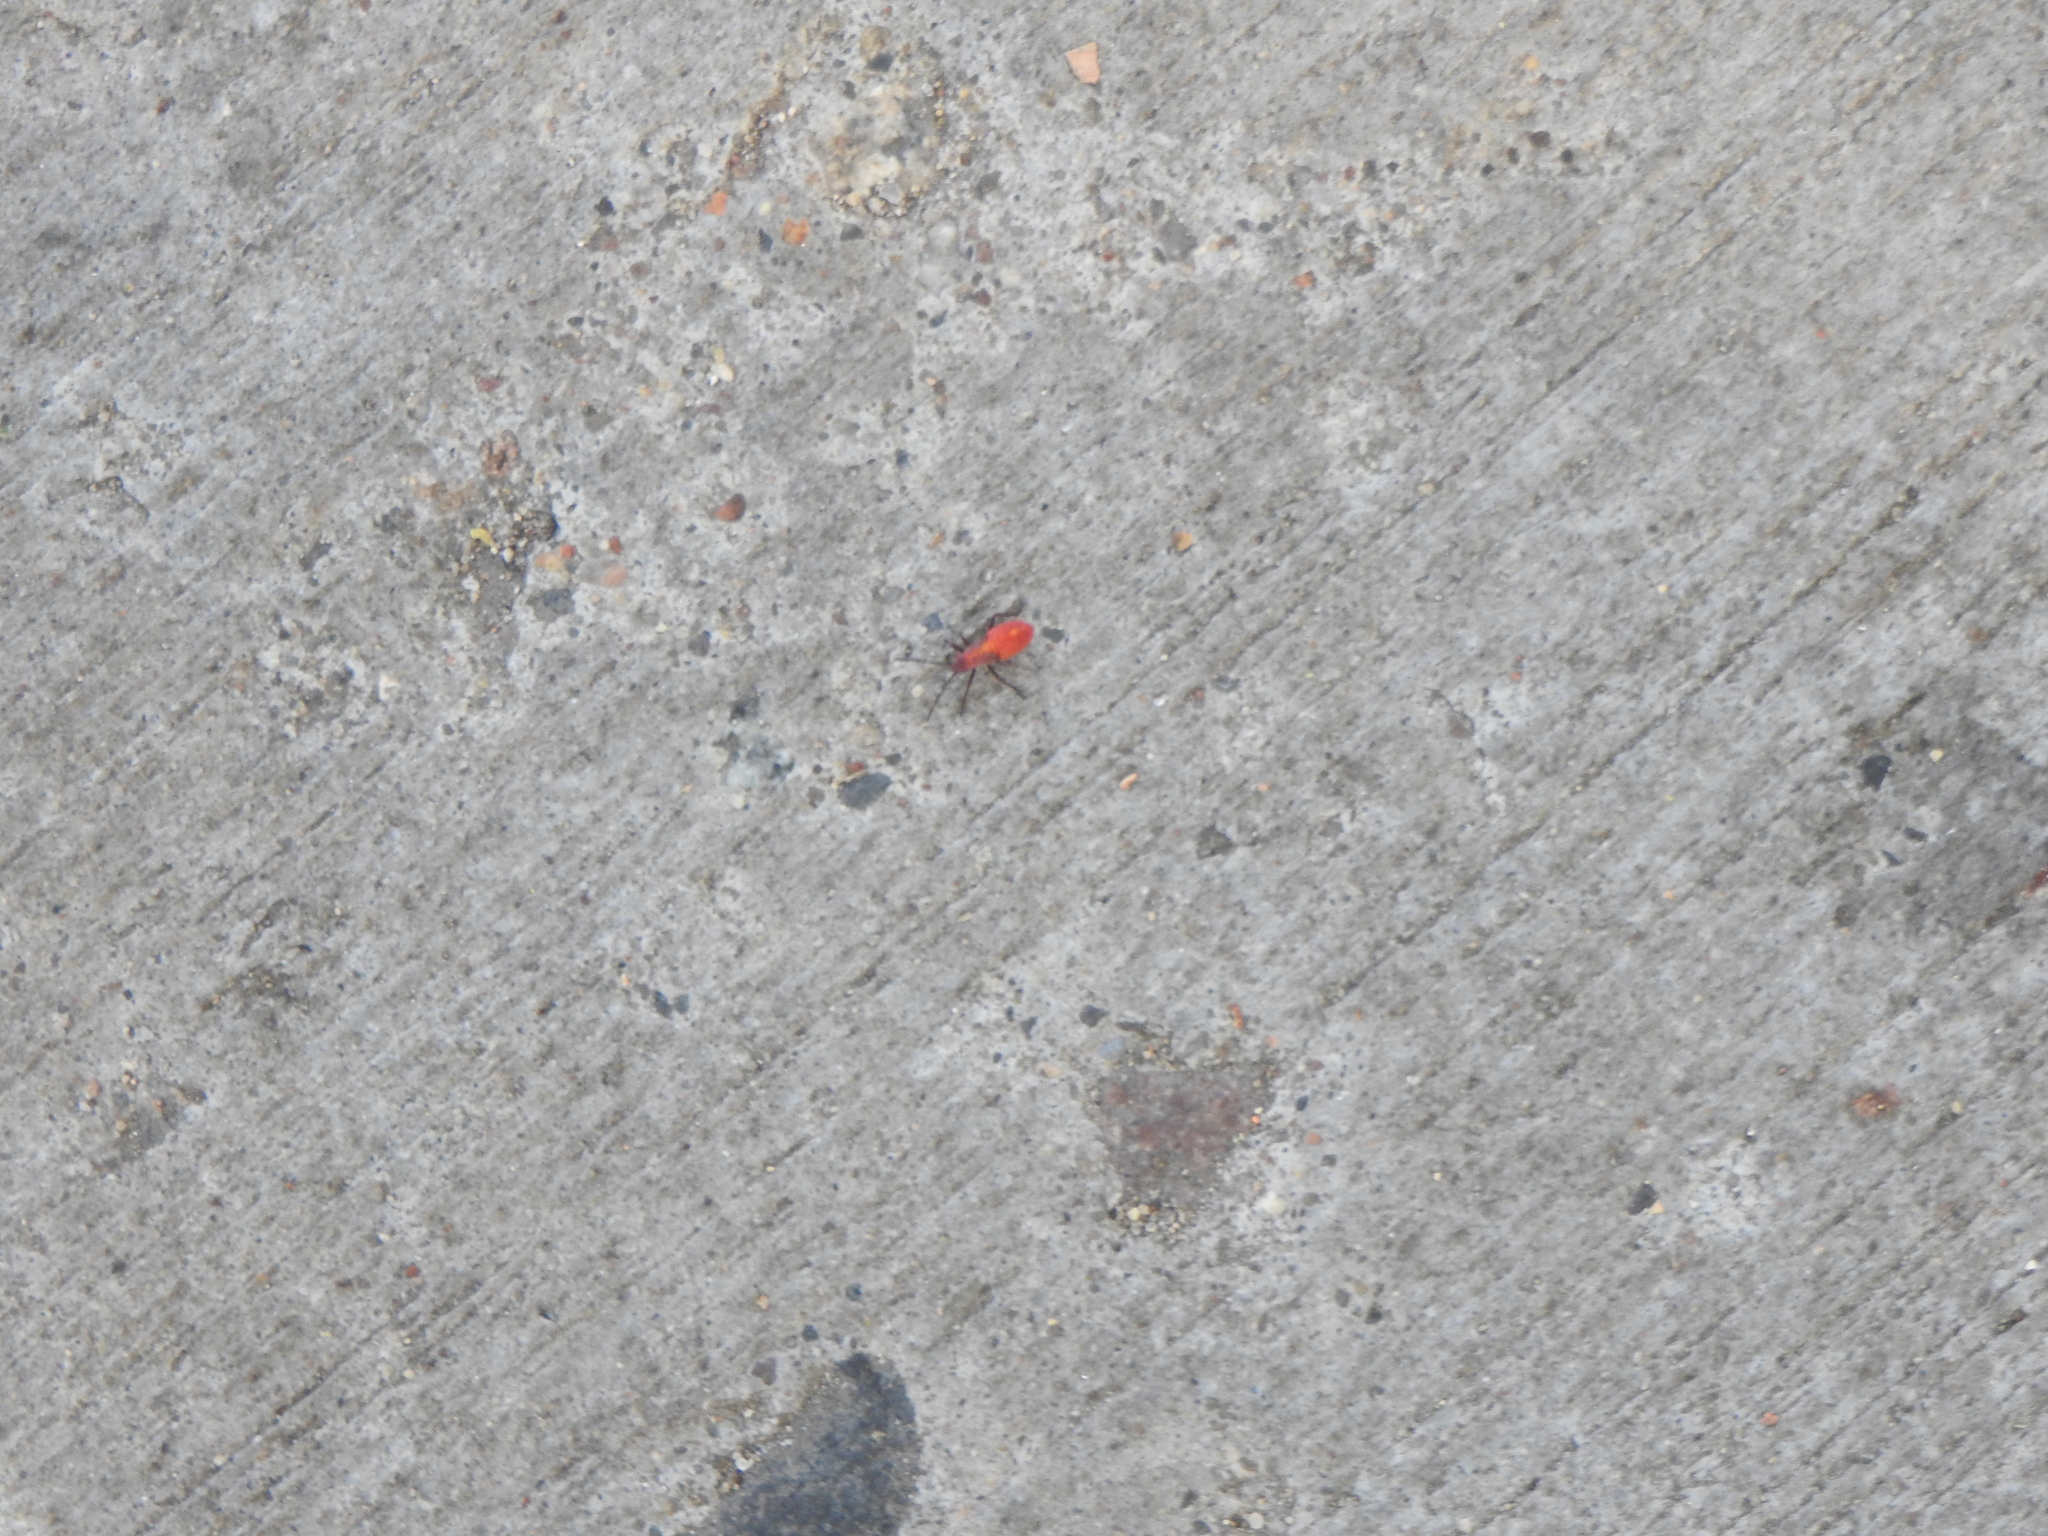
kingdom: Animalia
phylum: Arthropoda
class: Insecta
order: Hemiptera
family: Rhopalidae
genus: Boisea
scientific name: Boisea trivittata
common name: Boxelder bug
